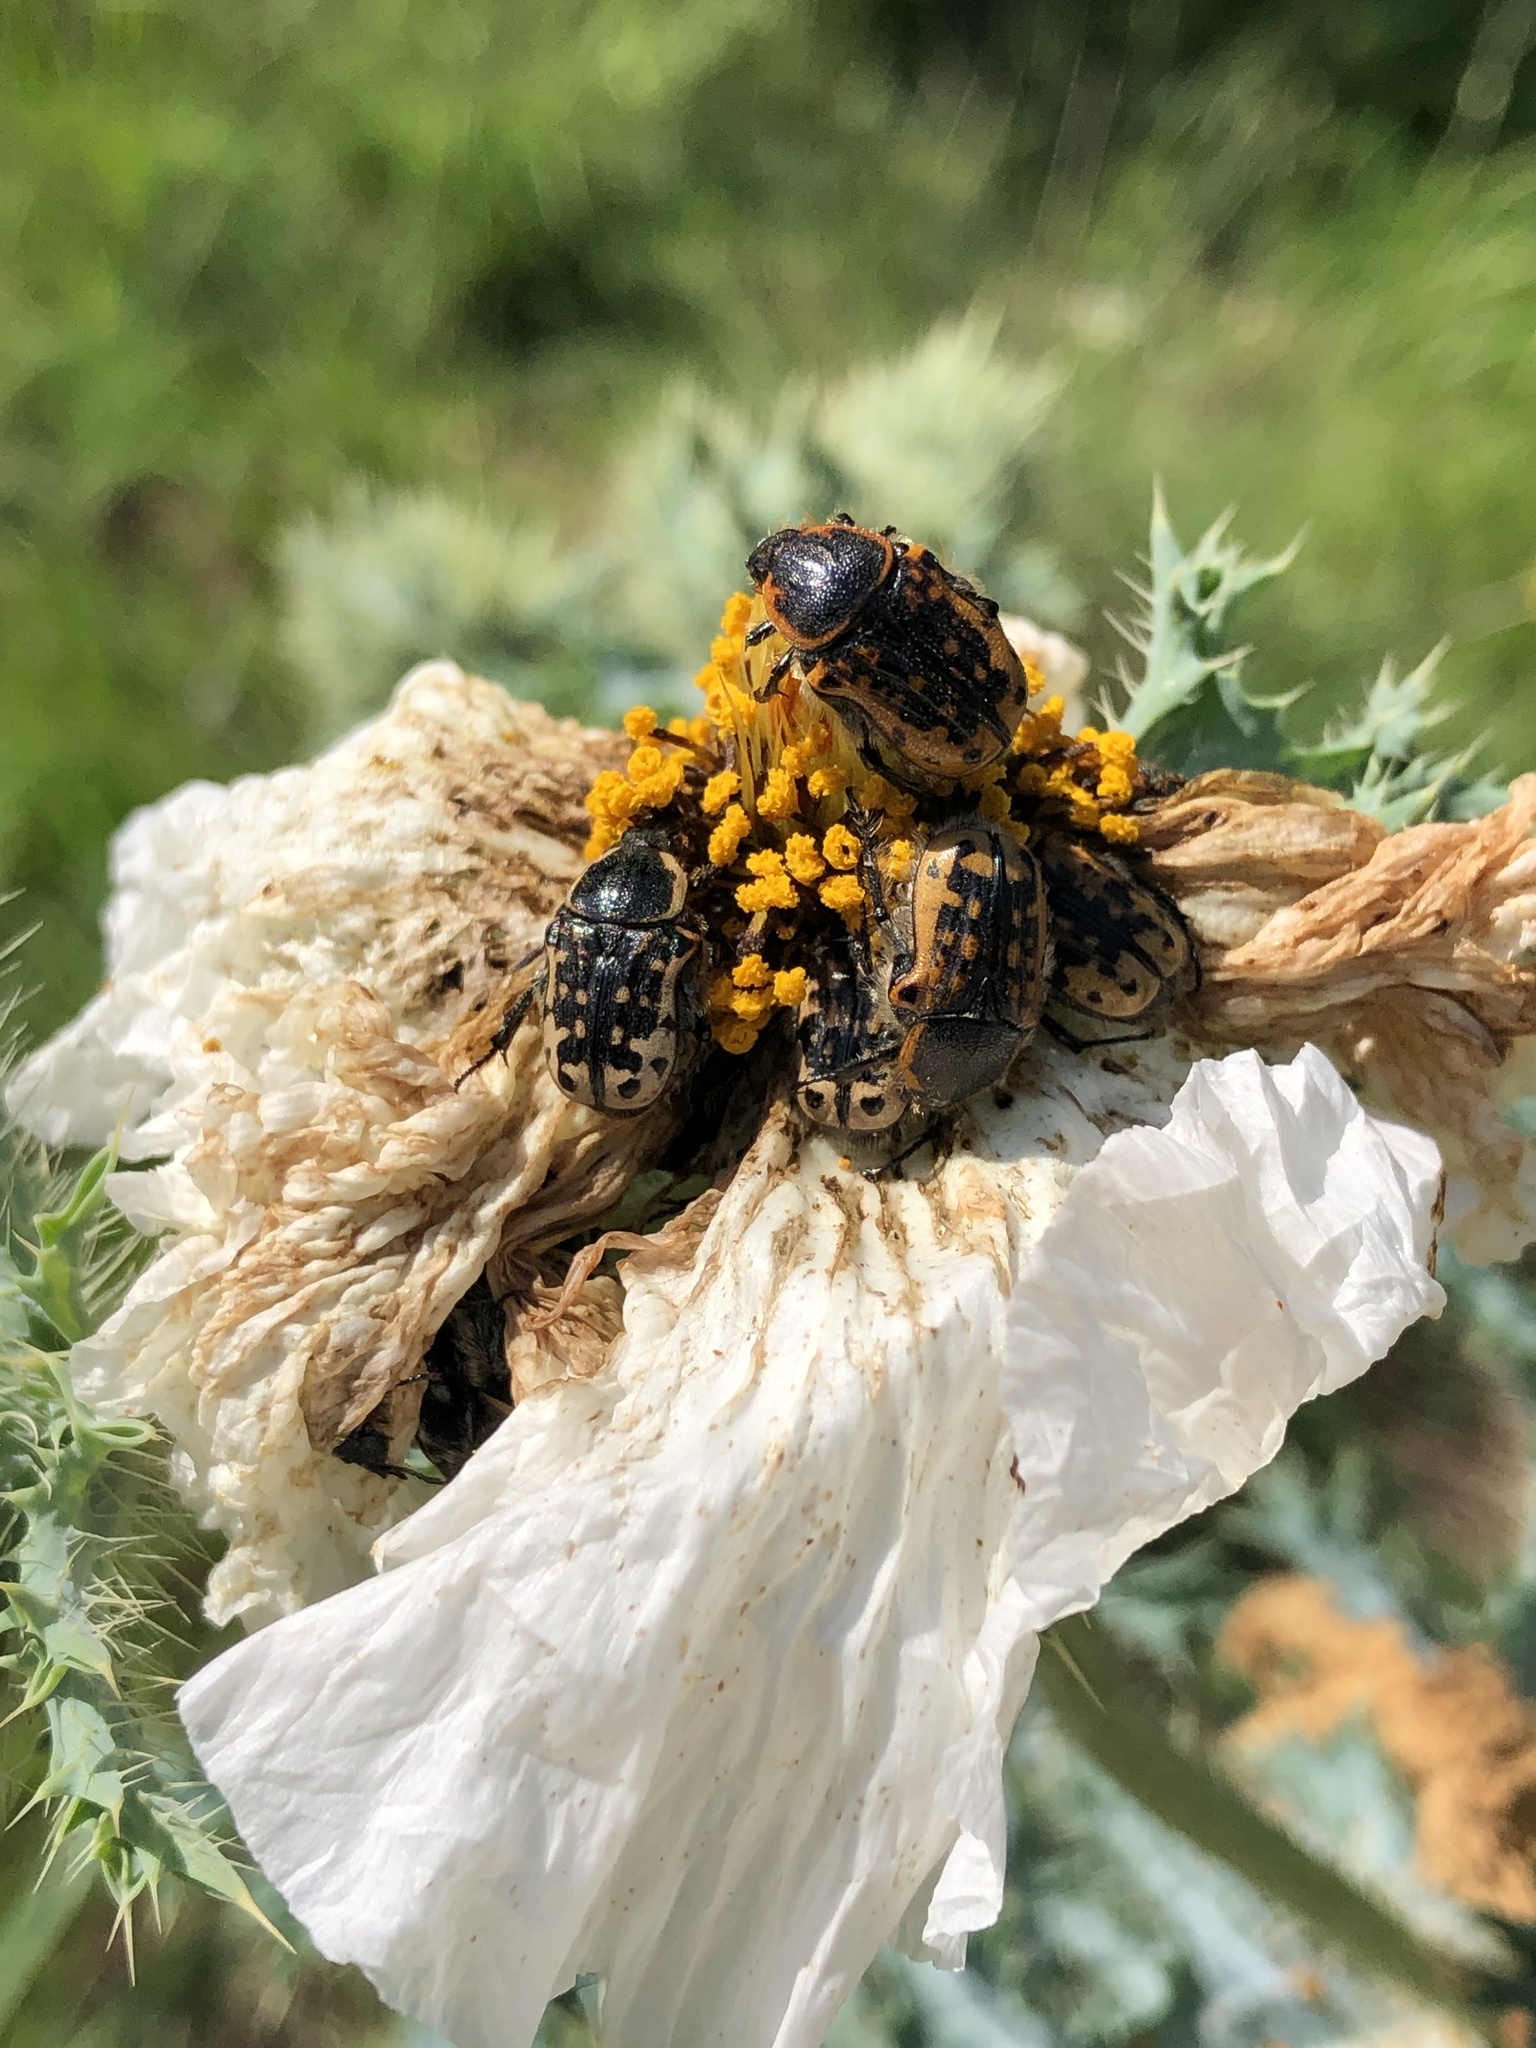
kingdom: Animalia
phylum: Arthropoda
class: Insecta
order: Coleoptera
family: Scarabaeidae
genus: Euphoria
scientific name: Euphoria kernii
